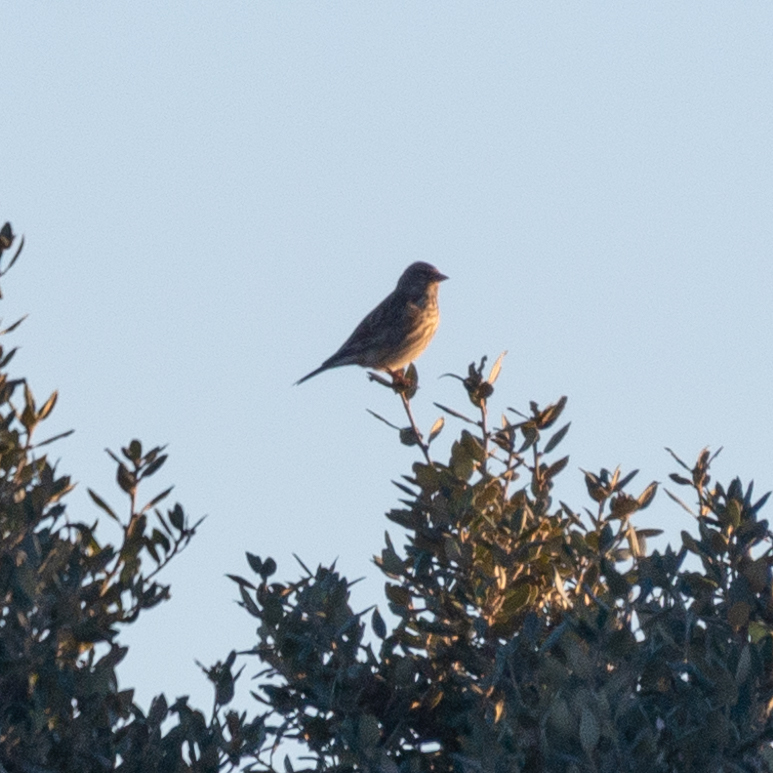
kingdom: Animalia
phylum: Chordata
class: Aves
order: Passeriformes
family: Fringillidae
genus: Linaria
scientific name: Linaria cannabina
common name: Common linnet
